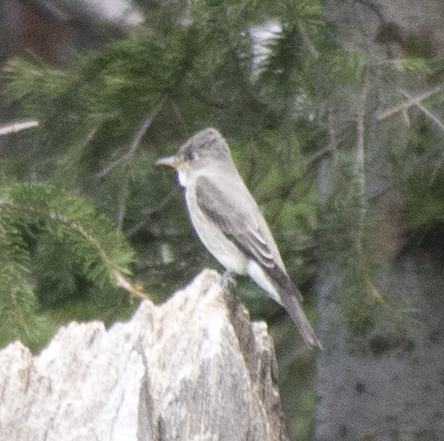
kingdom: Animalia
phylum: Chordata
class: Aves
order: Passeriformes
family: Tyrannidae
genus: Contopus
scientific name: Contopus cooperi
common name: Olive-sided flycatcher
